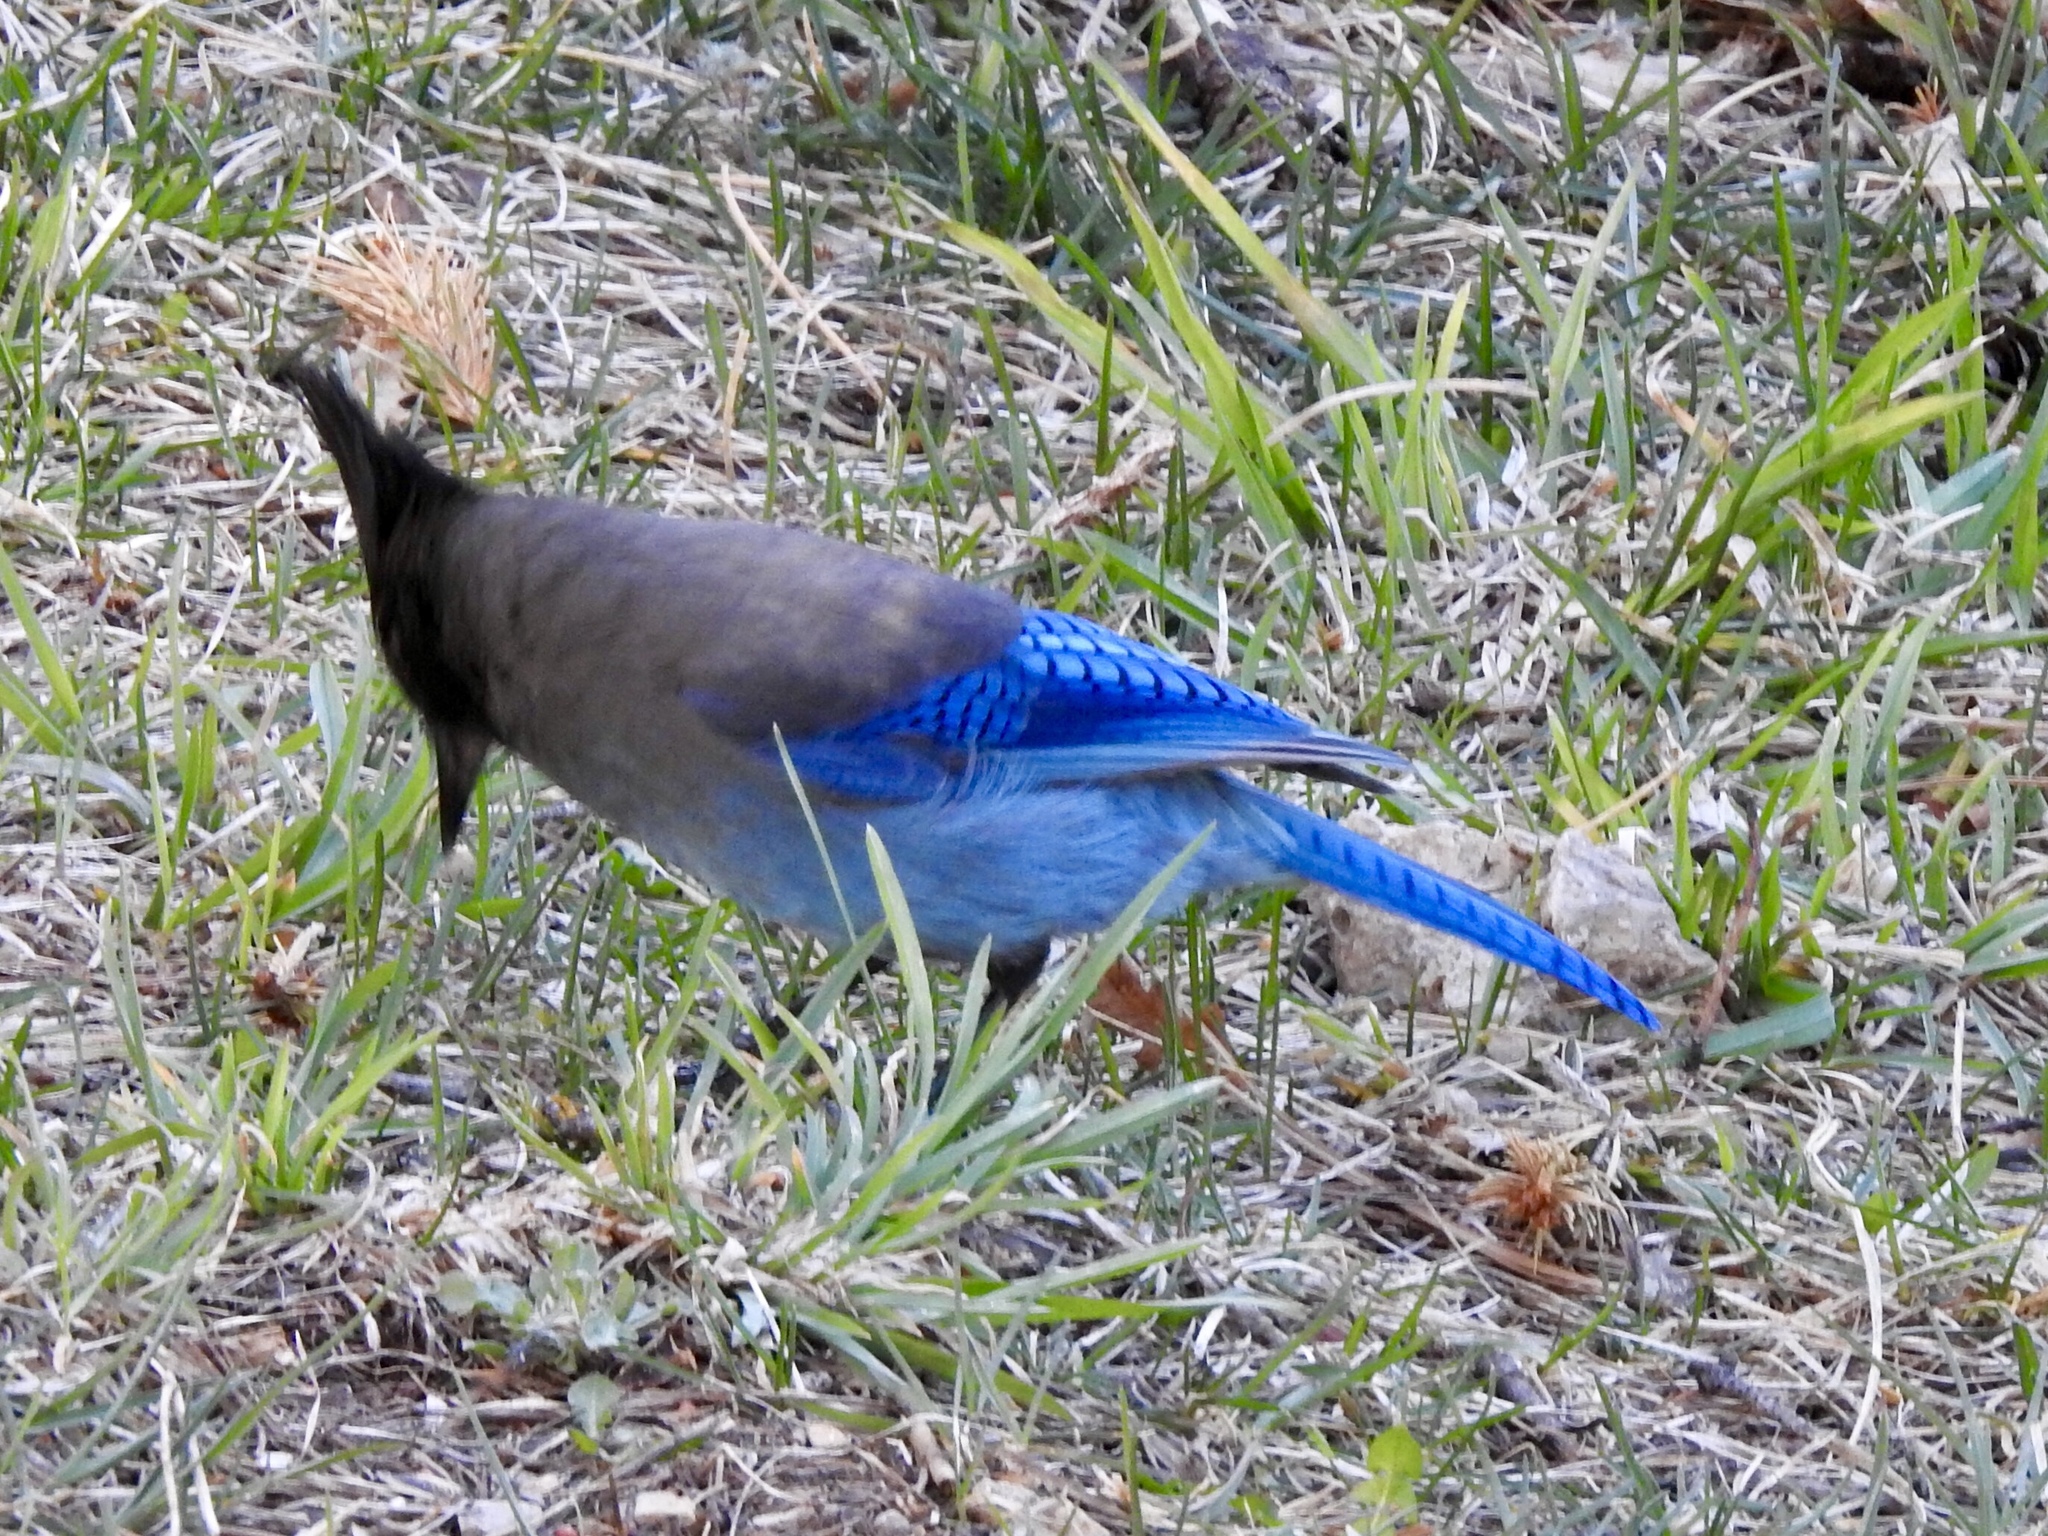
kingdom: Animalia
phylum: Chordata
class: Aves
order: Passeriformes
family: Corvidae
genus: Cyanocitta
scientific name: Cyanocitta stelleri
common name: Steller's jay
